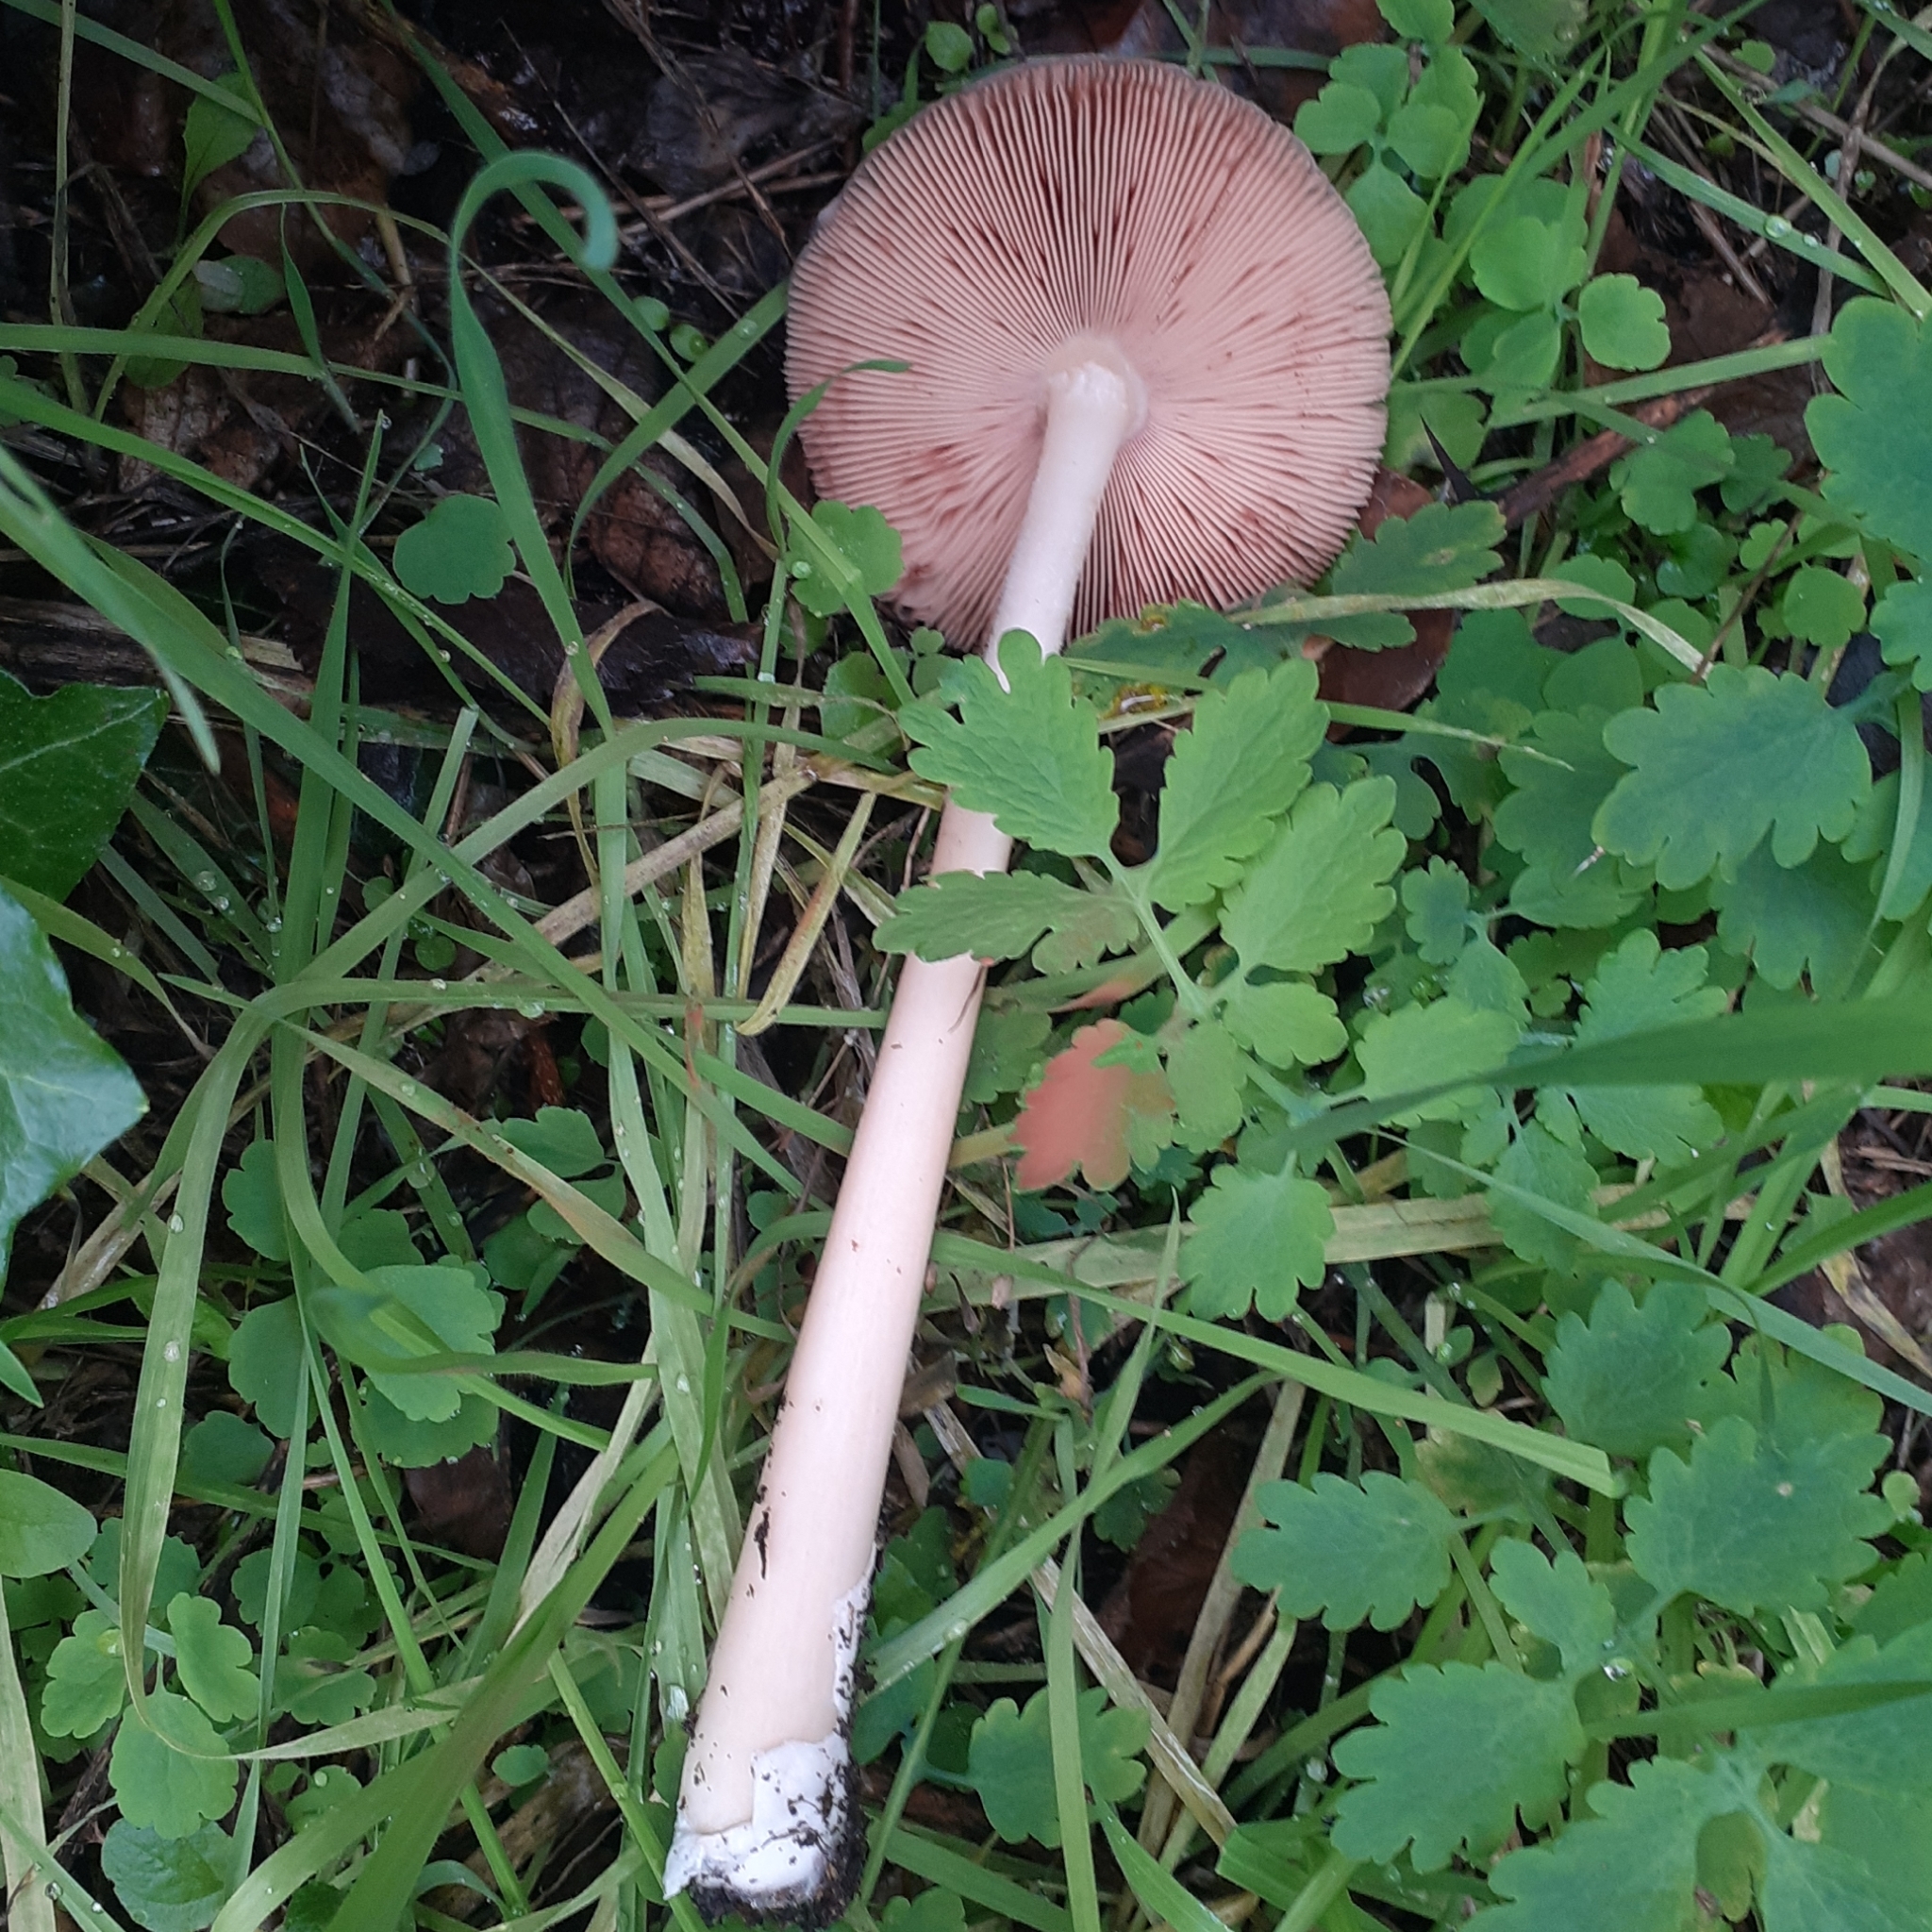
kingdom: Fungi
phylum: Basidiomycota
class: Agaricomycetes
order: Agaricales
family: Pluteaceae
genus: Volvopluteus
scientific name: Volvopluteus gloiocephalus
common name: Stubble rosegill
